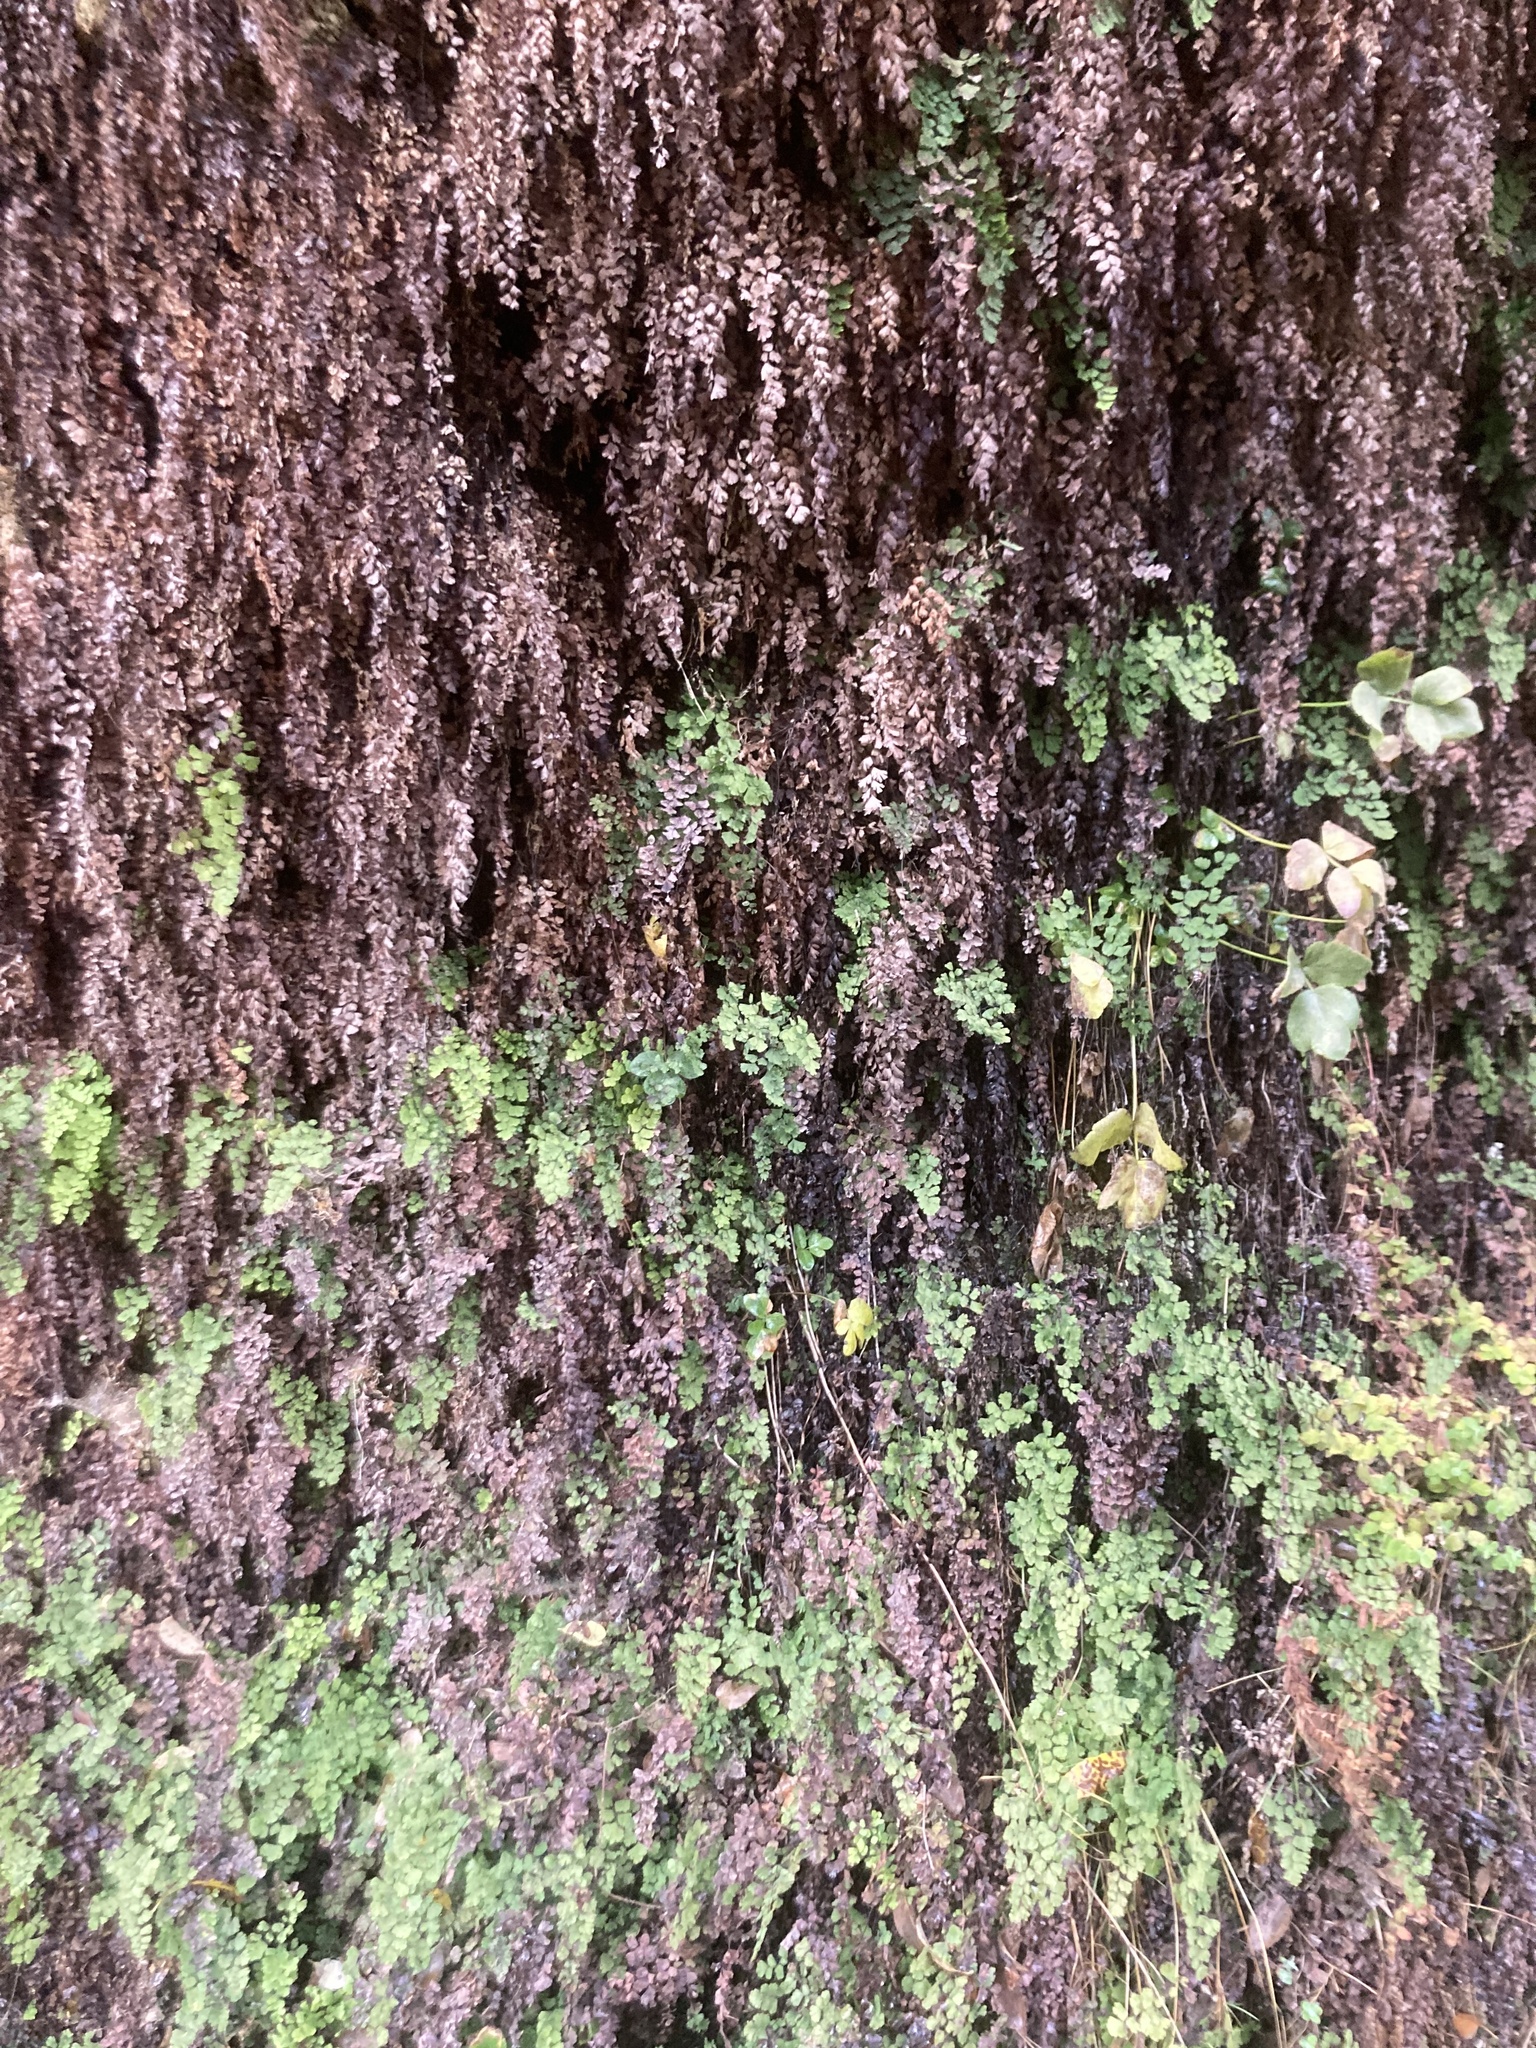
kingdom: Plantae
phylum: Tracheophyta
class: Polypodiopsida
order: Polypodiales
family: Pteridaceae
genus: Adiantum
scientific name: Adiantum capillus-veneris
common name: Maidenhair fern
